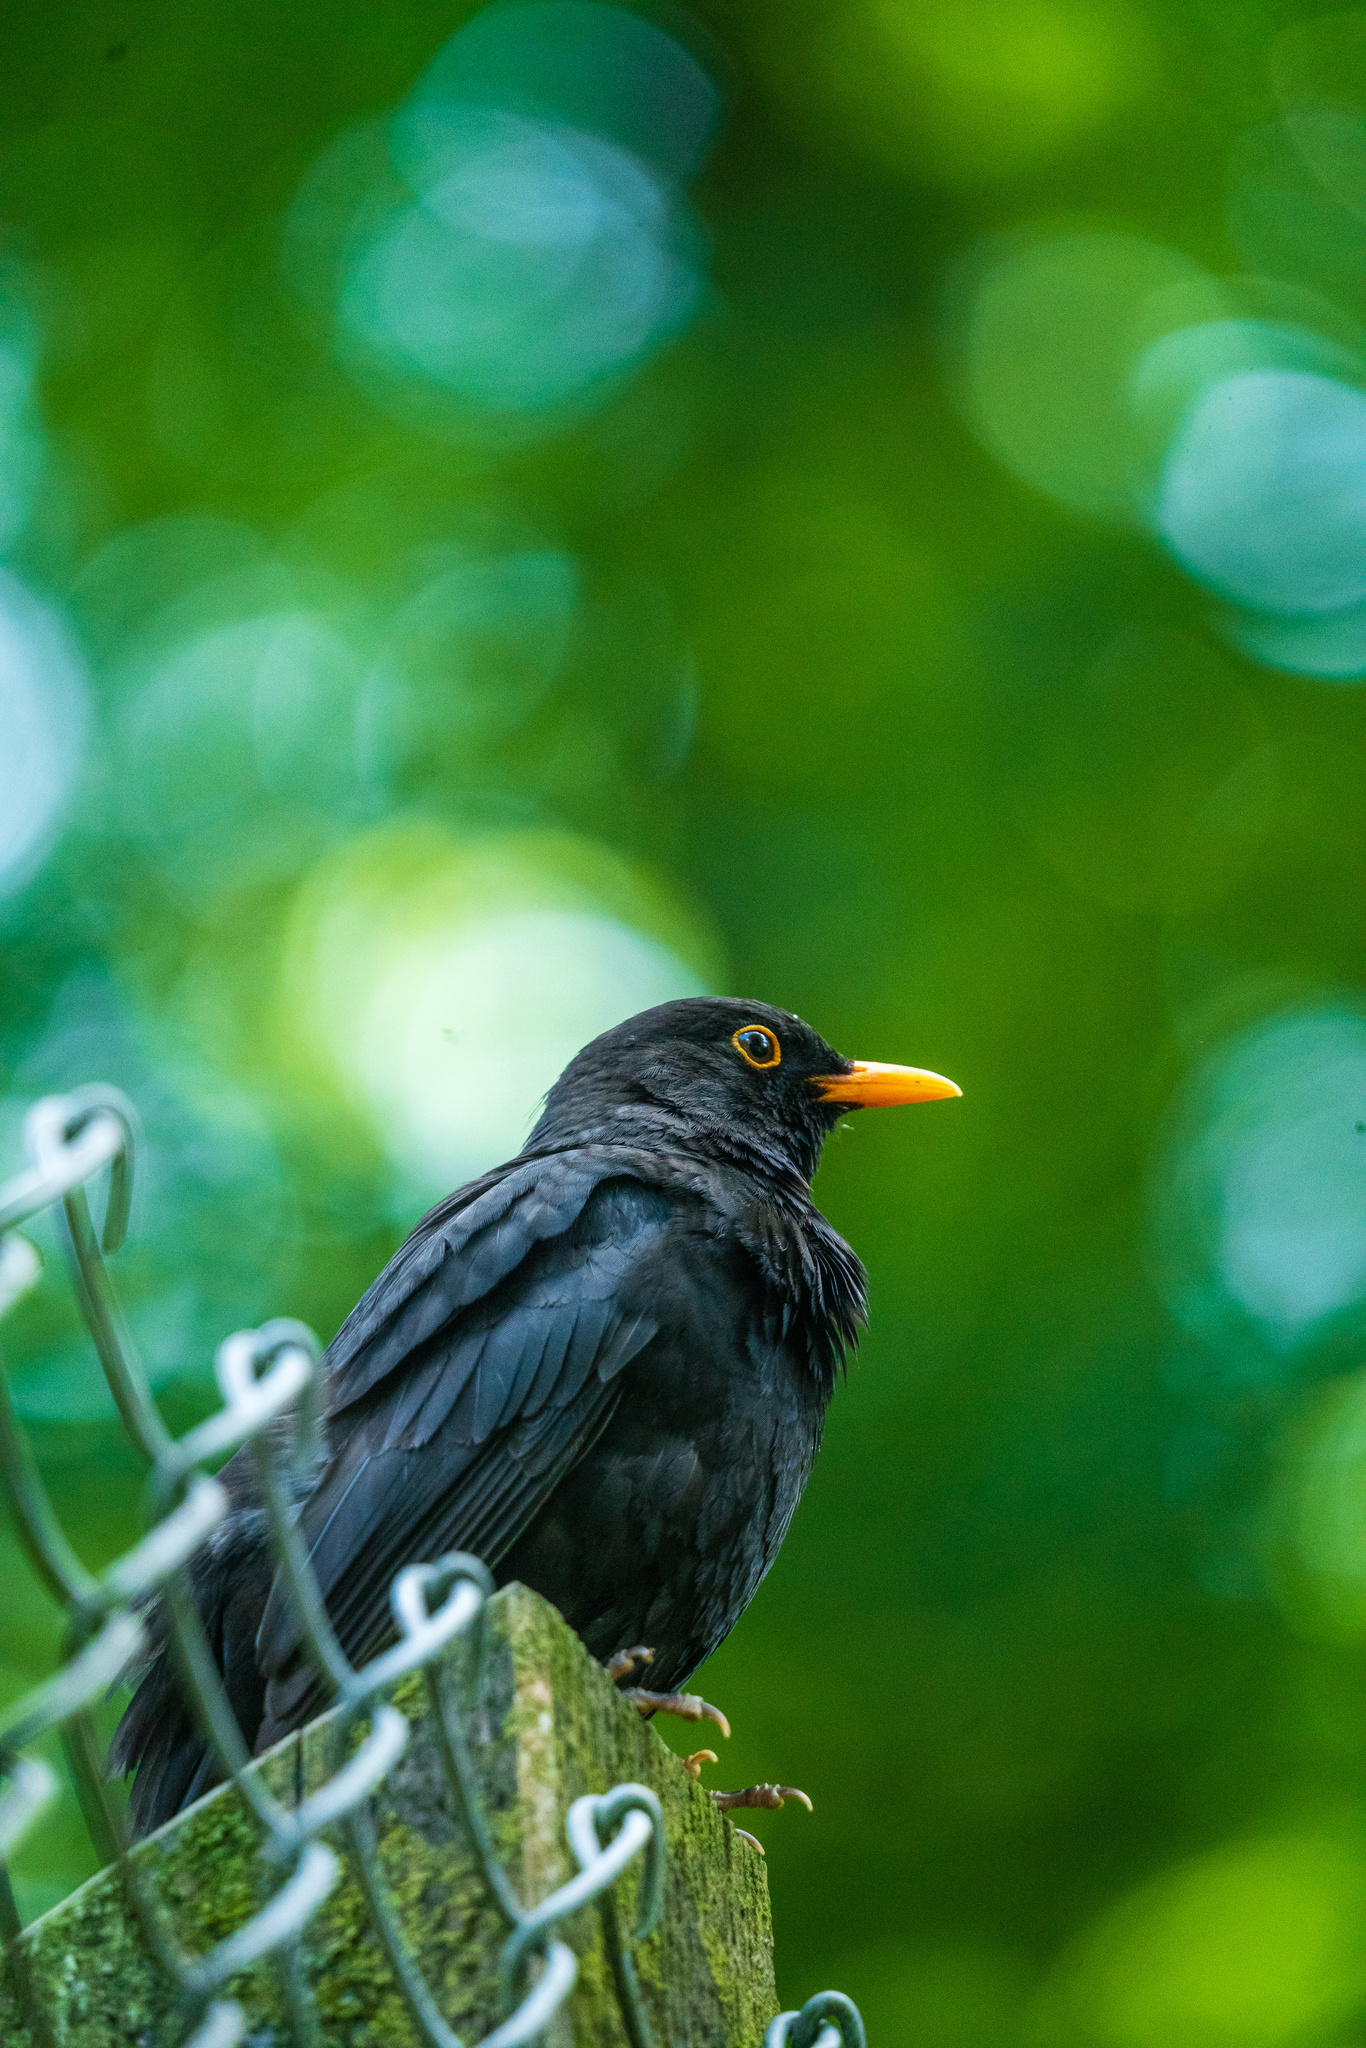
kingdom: Animalia
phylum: Chordata
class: Aves
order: Passeriformes
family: Turdidae
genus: Turdus
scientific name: Turdus merula
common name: Common blackbird
